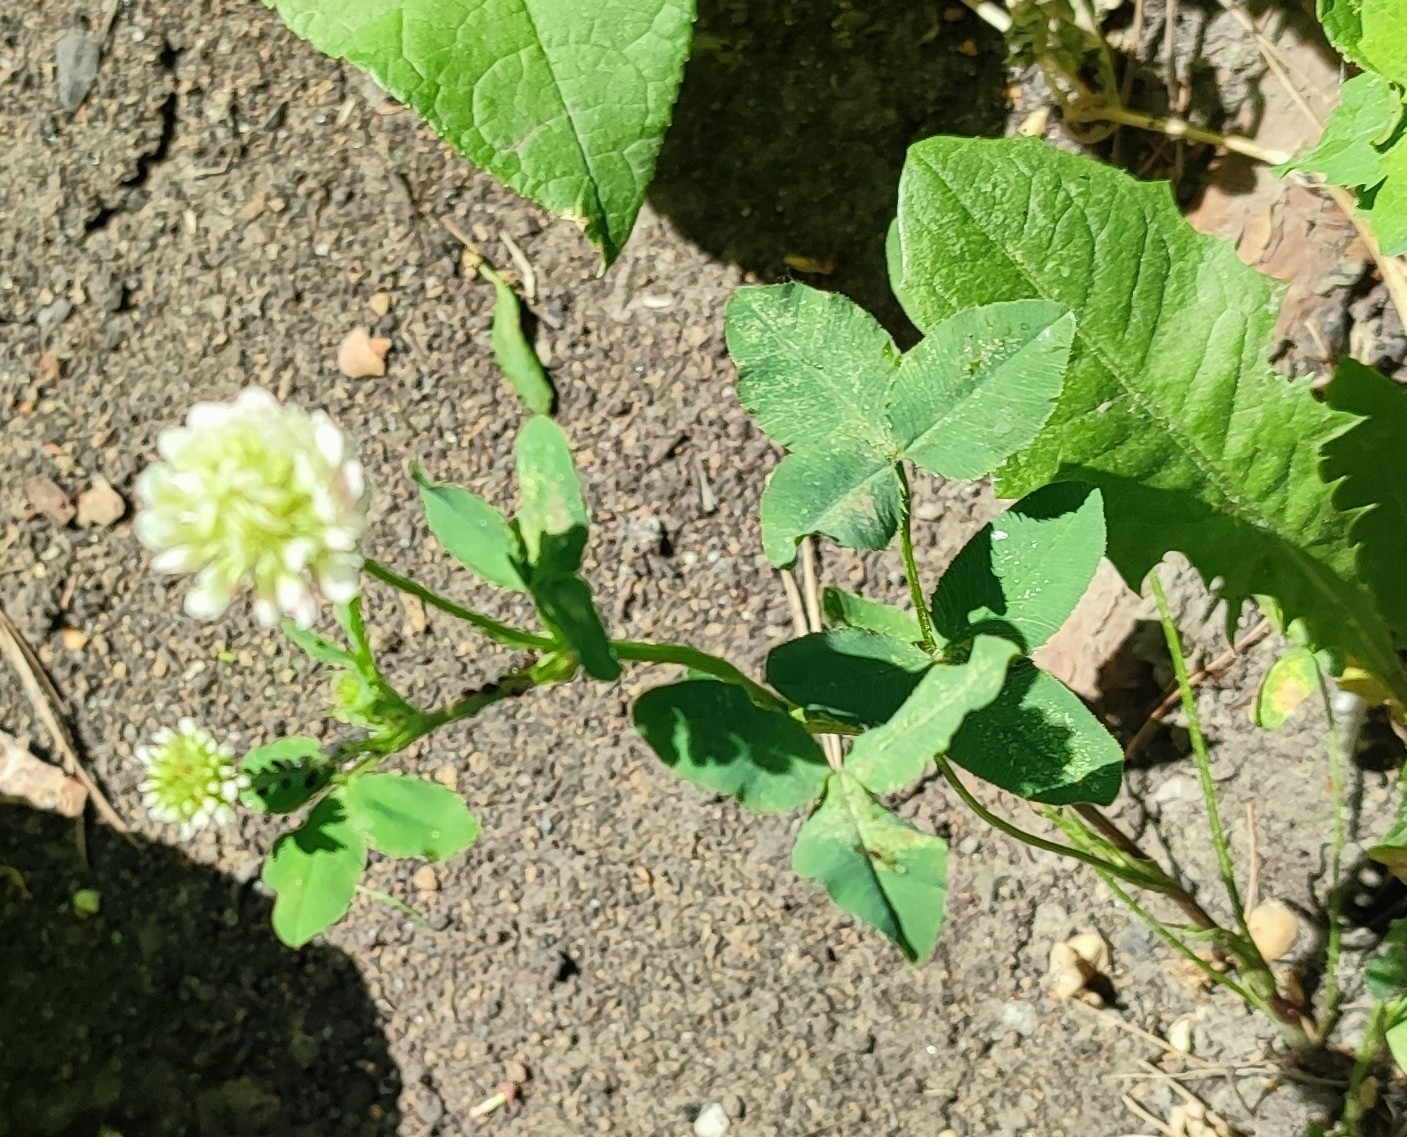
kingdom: Plantae
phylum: Tracheophyta
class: Magnoliopsida
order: Fabales
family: Fabaceae
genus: Trifolium
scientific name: Trifolium hybridum
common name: Alsike clover
